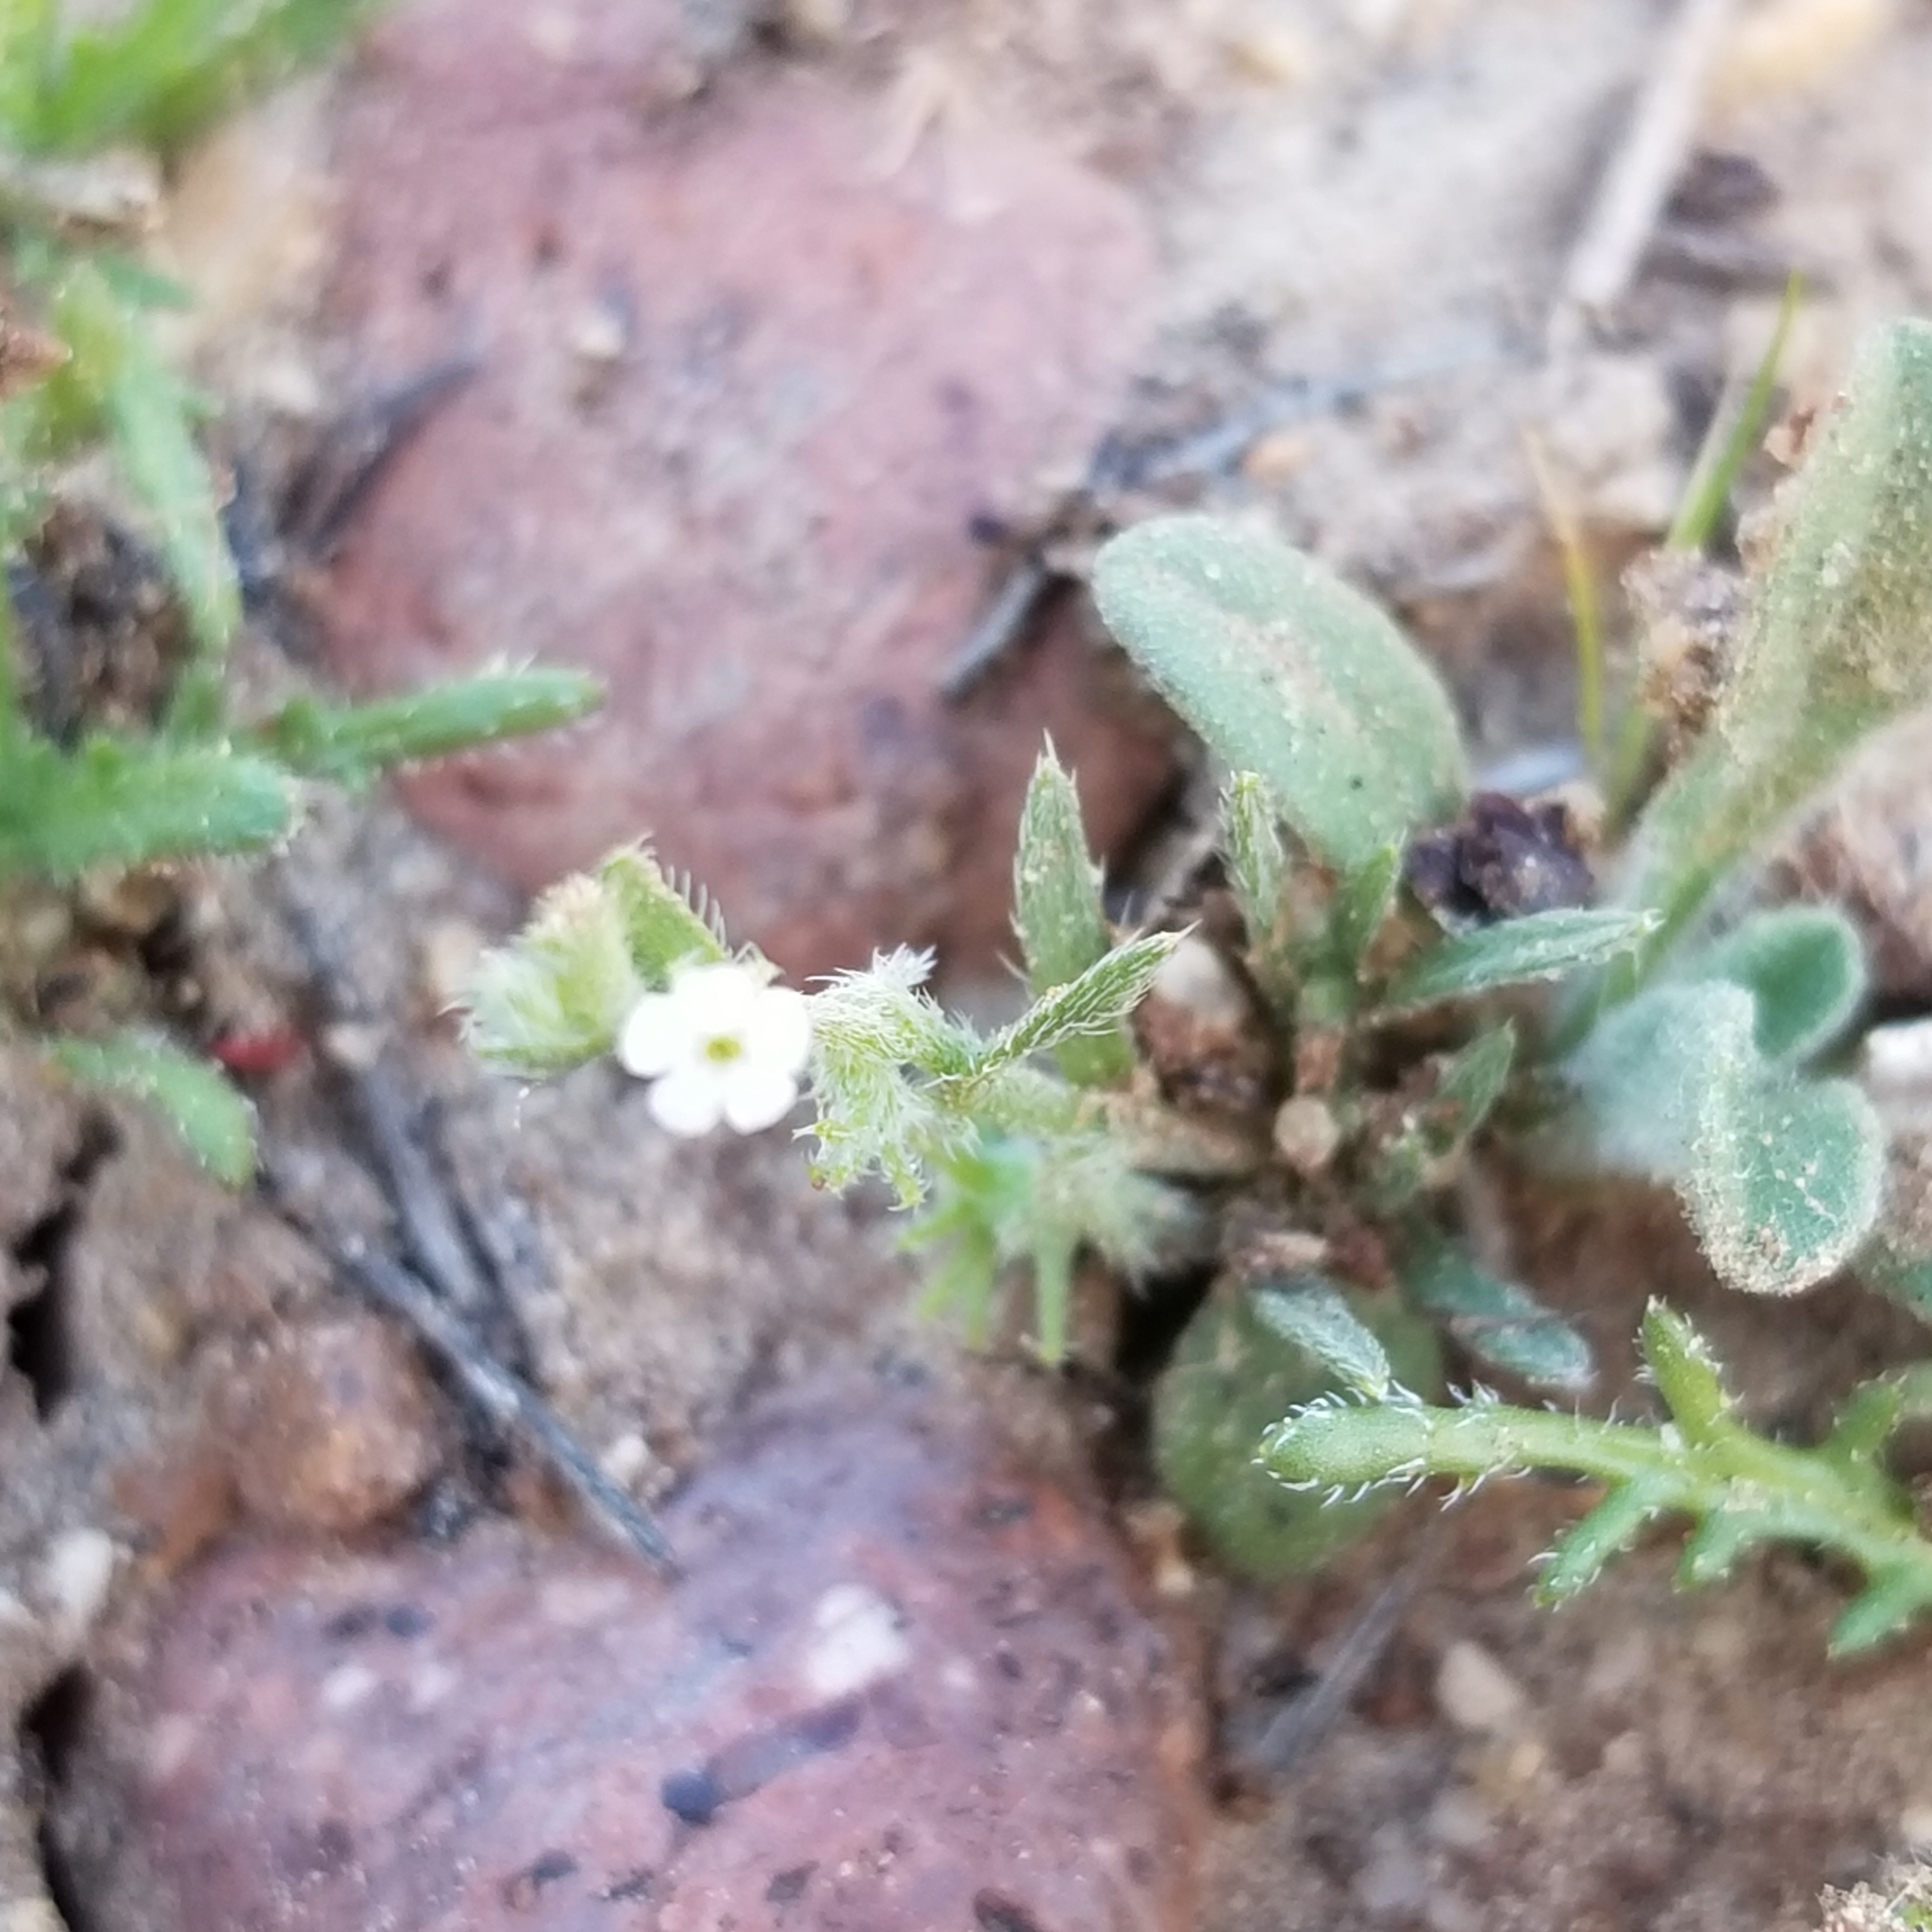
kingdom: Plantae
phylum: Tracheophyta
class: Magnoliopsida
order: Boraginales
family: Boraginaceae
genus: Harpagonella
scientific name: Harpagonella palmeri
